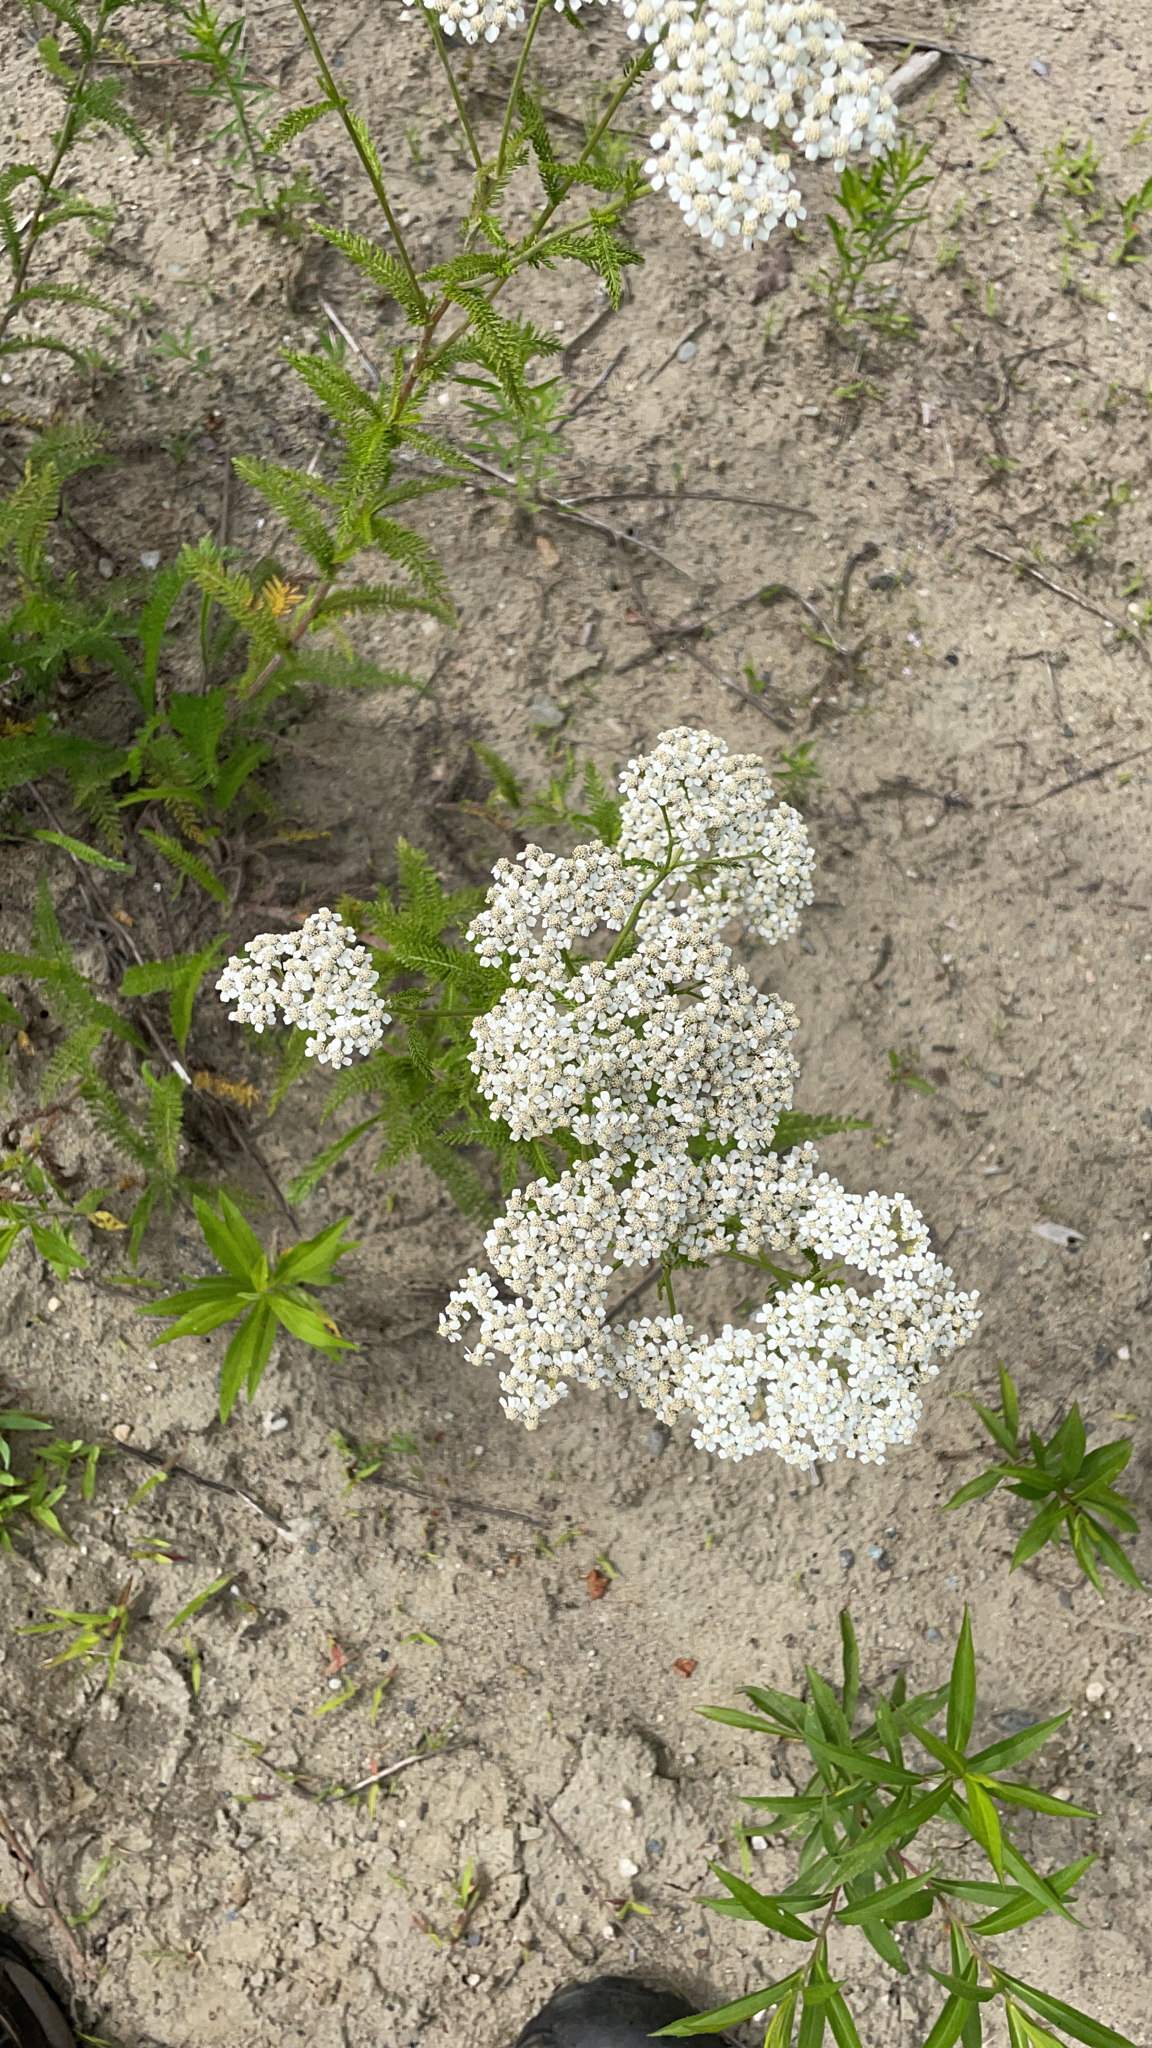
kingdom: Plantae
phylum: Tracheophyta
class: Magnoliopsida
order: Asterales
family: Asteraceae
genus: Achillea
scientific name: Achillea millefolium
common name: Yarrow
